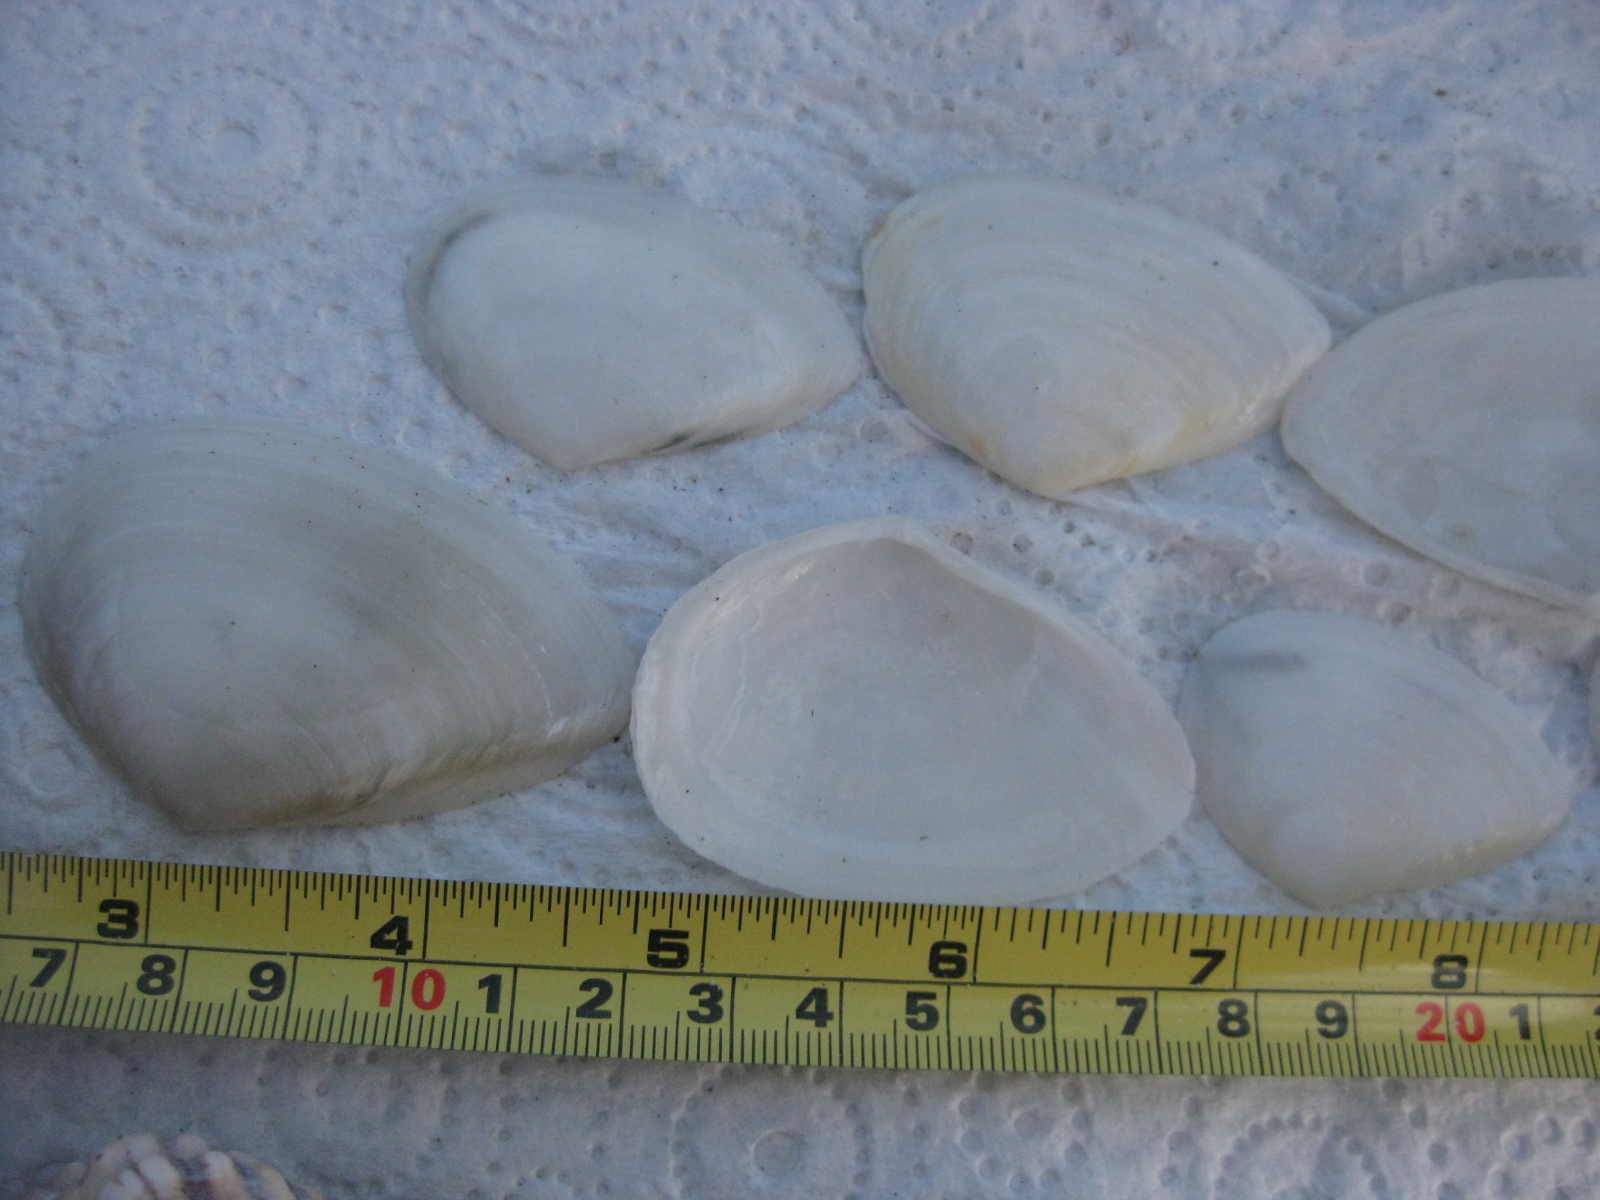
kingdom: Animalia
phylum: Mollusca
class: Bivalvia
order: Cardiida
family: Tellinidae
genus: Bartschicoma
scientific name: Bartschicoma gaimardi
